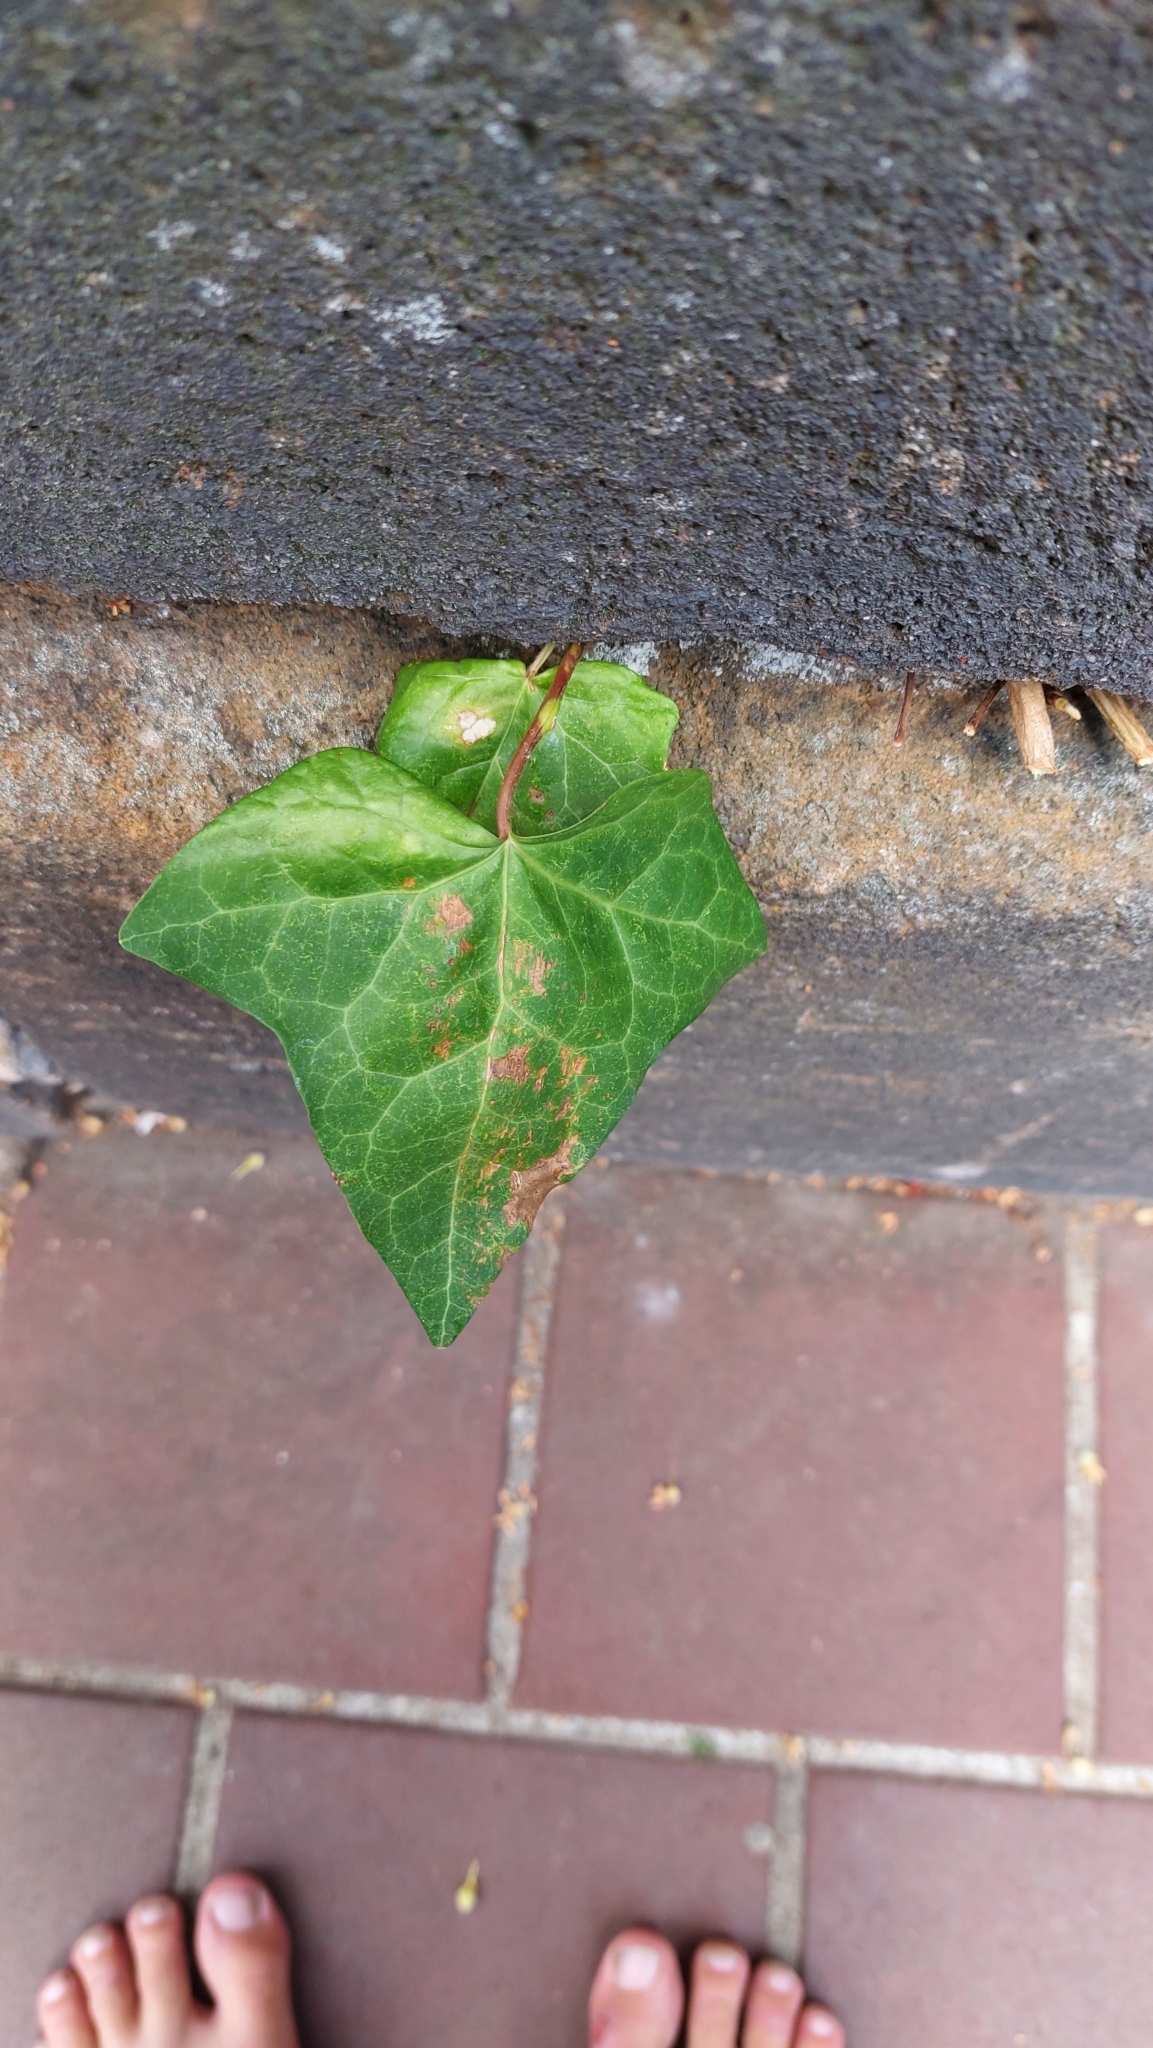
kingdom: Plantae
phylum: Tracheophyta
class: Magnoliopsida
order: Apiales
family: Araliaceae
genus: Hedera
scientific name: Hedera helix
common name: Ivy
